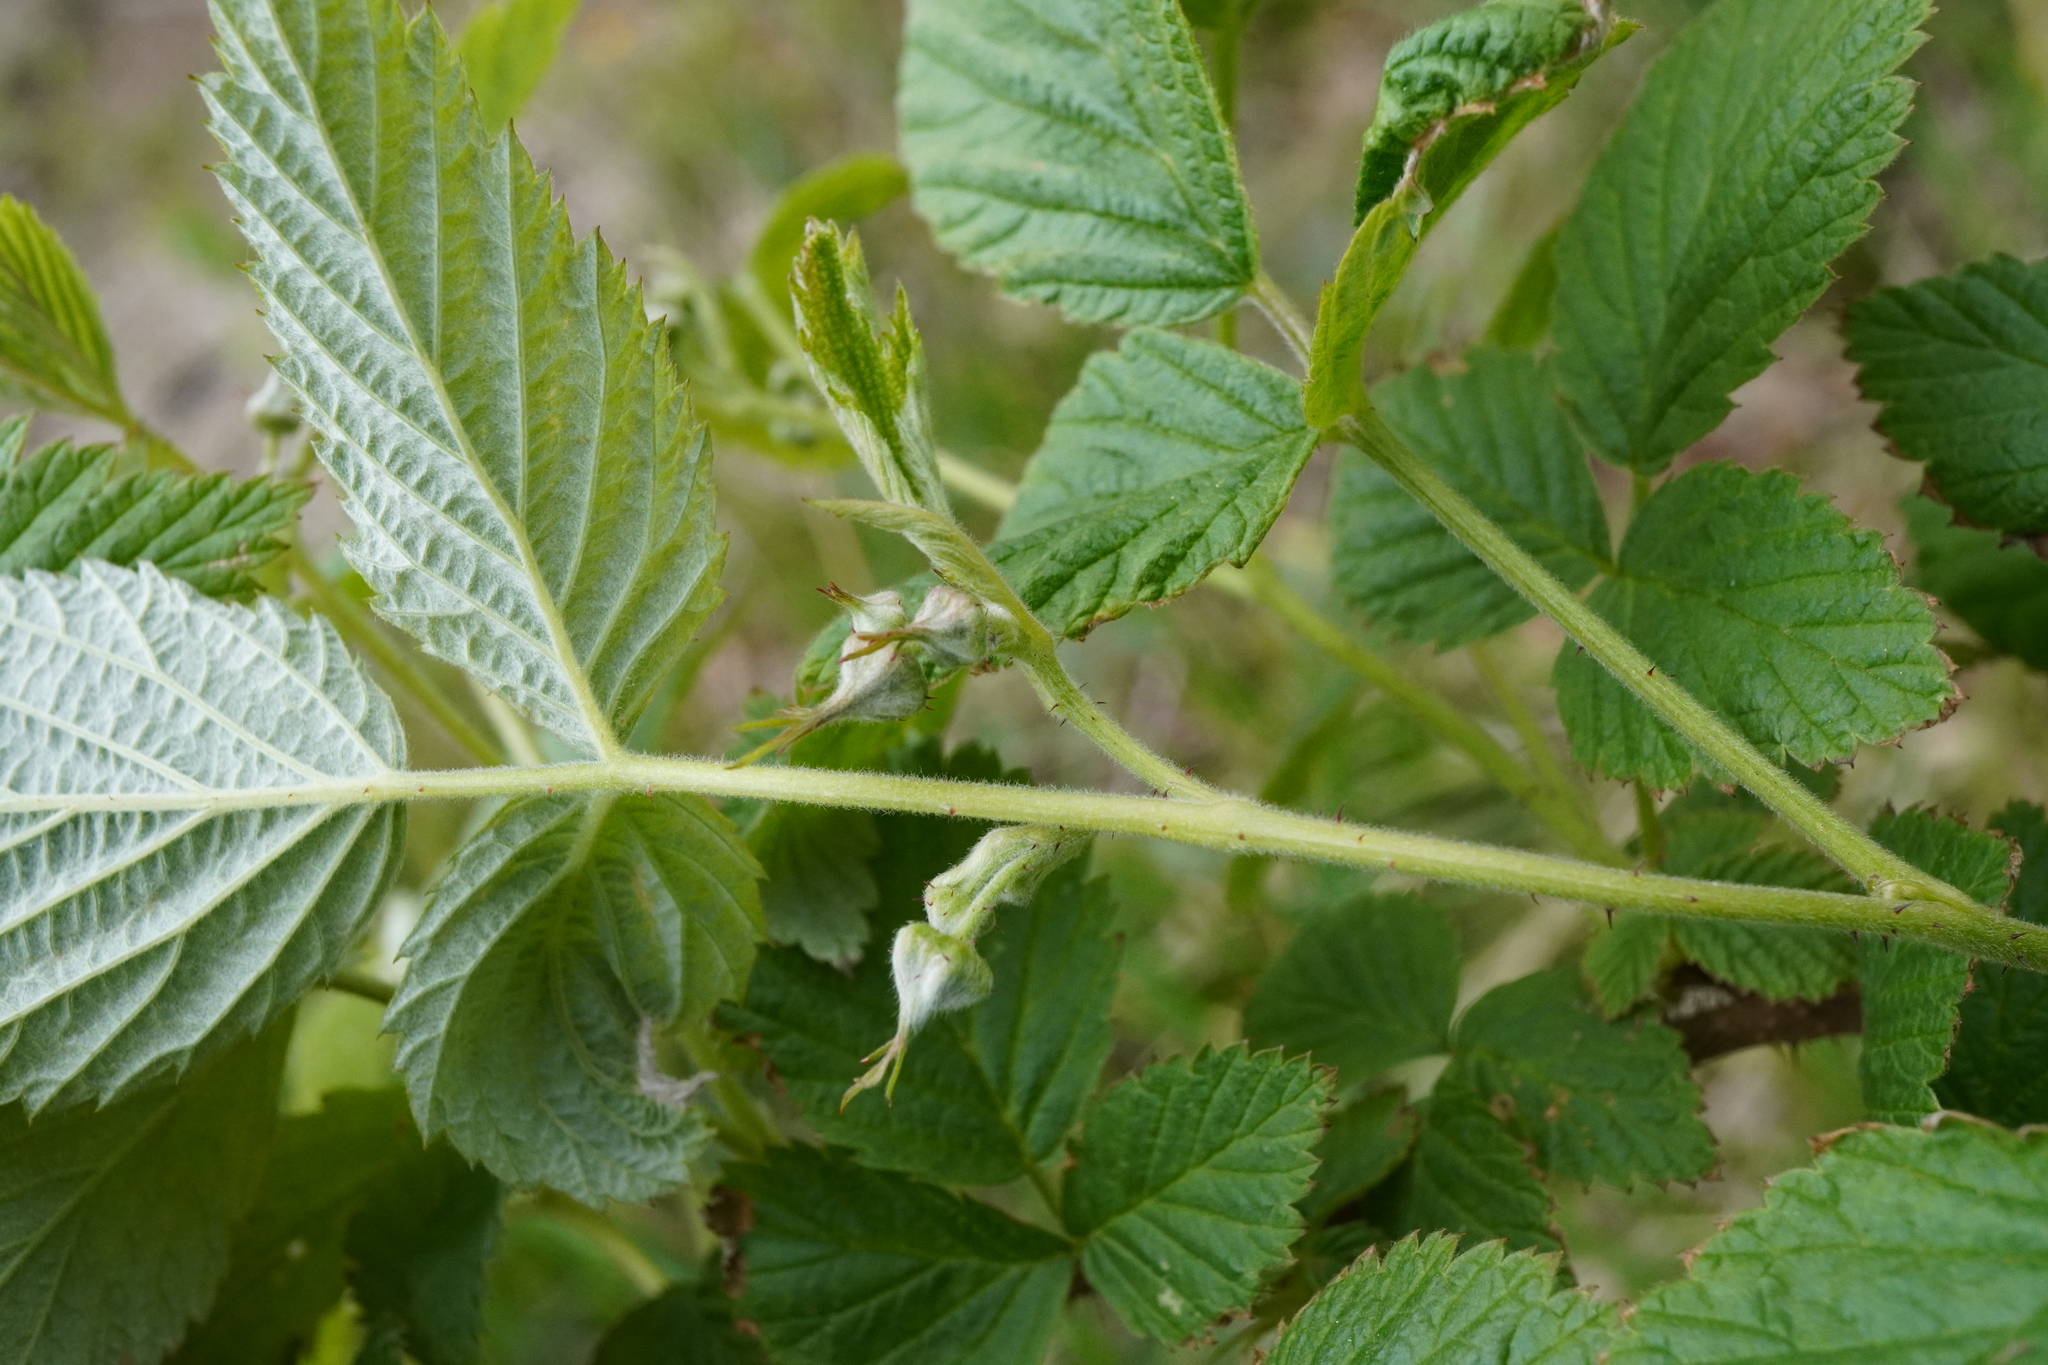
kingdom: Plantae
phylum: Tracheophyta
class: Magnoliopsida
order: Rosales
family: Rosaceae
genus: Rubus
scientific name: Rubus idaeus
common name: Raspberry
